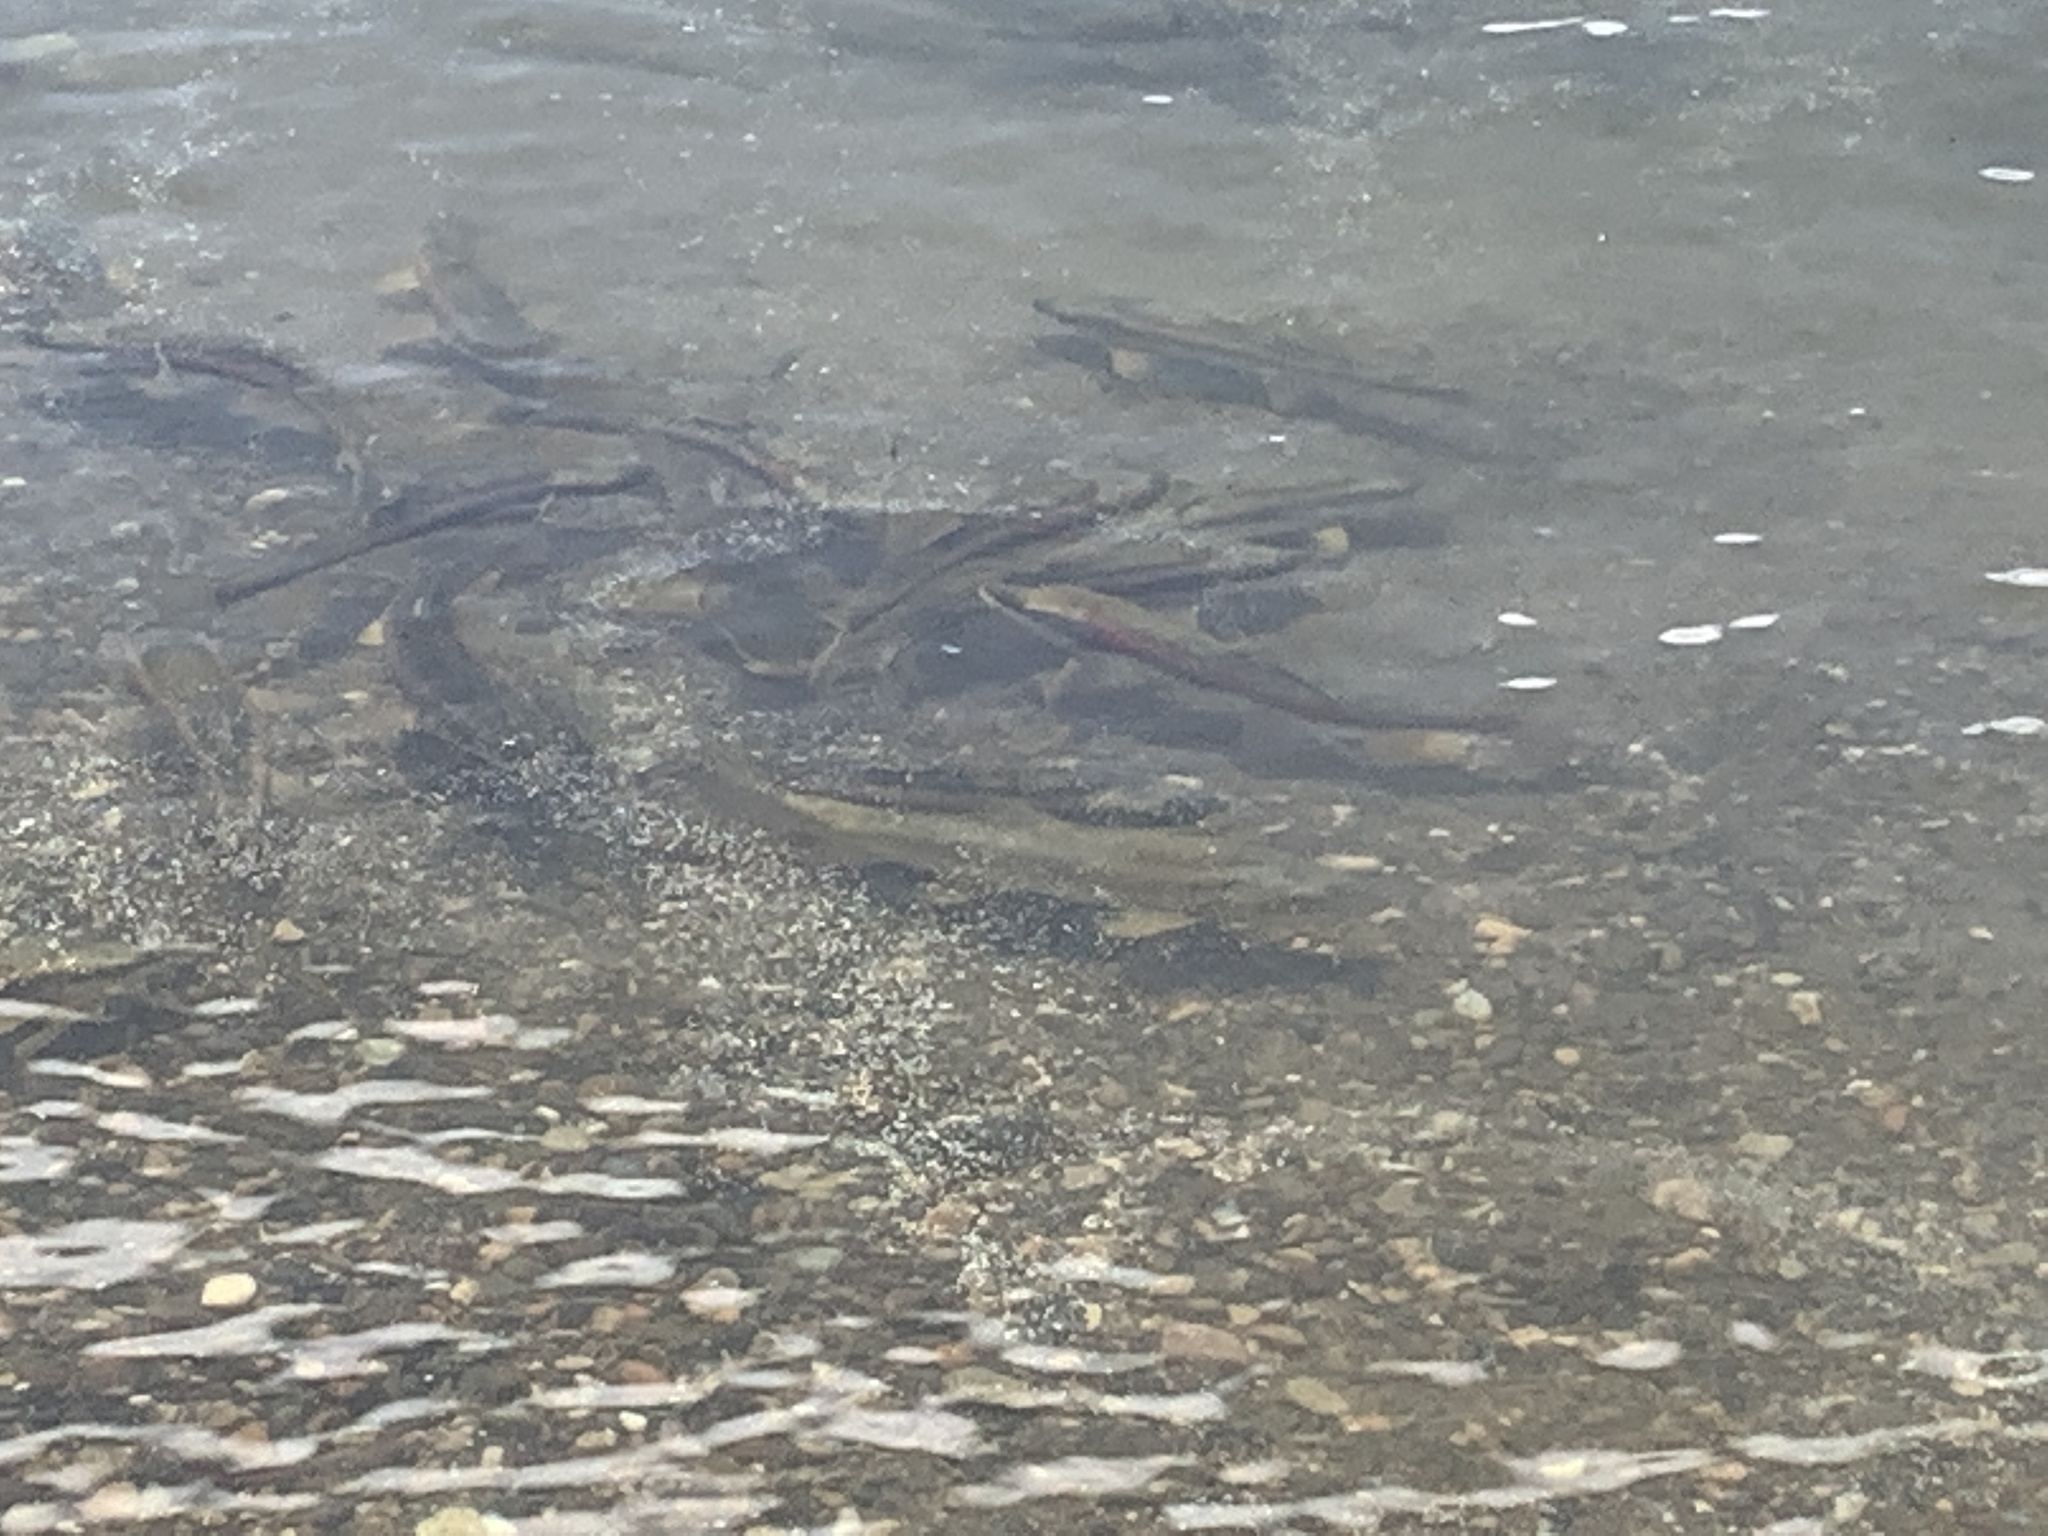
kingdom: Animalia
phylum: Chordata
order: Cypriniformes
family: Catostomidae
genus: Catostomus
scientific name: Catostomus catostomus
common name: Longnose sucker
